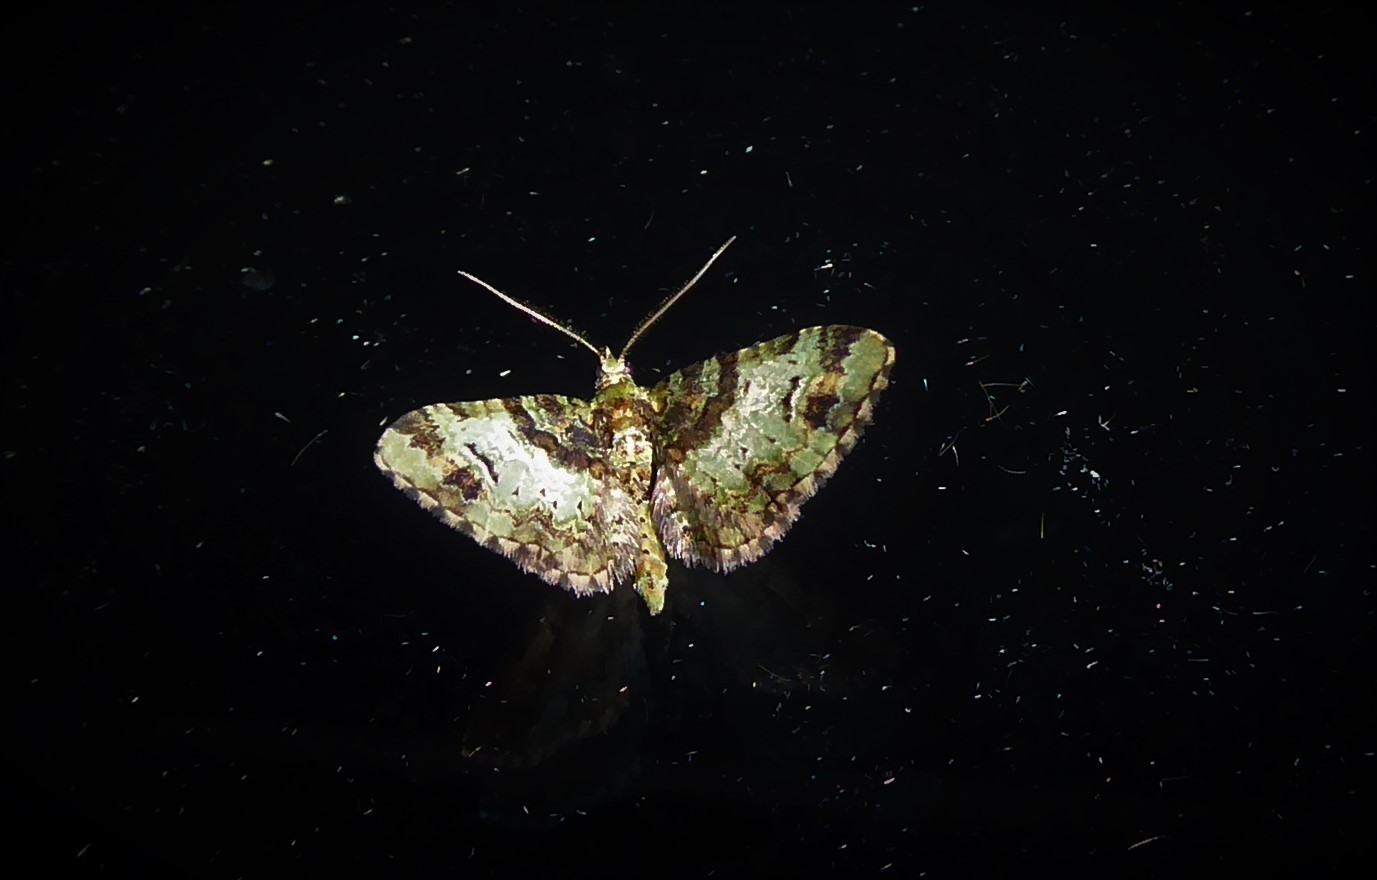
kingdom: Animalia
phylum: Arthropoda
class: Insecta
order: Lepidoptera
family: Geometridae
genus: Idaea
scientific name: Idaea mutanda
